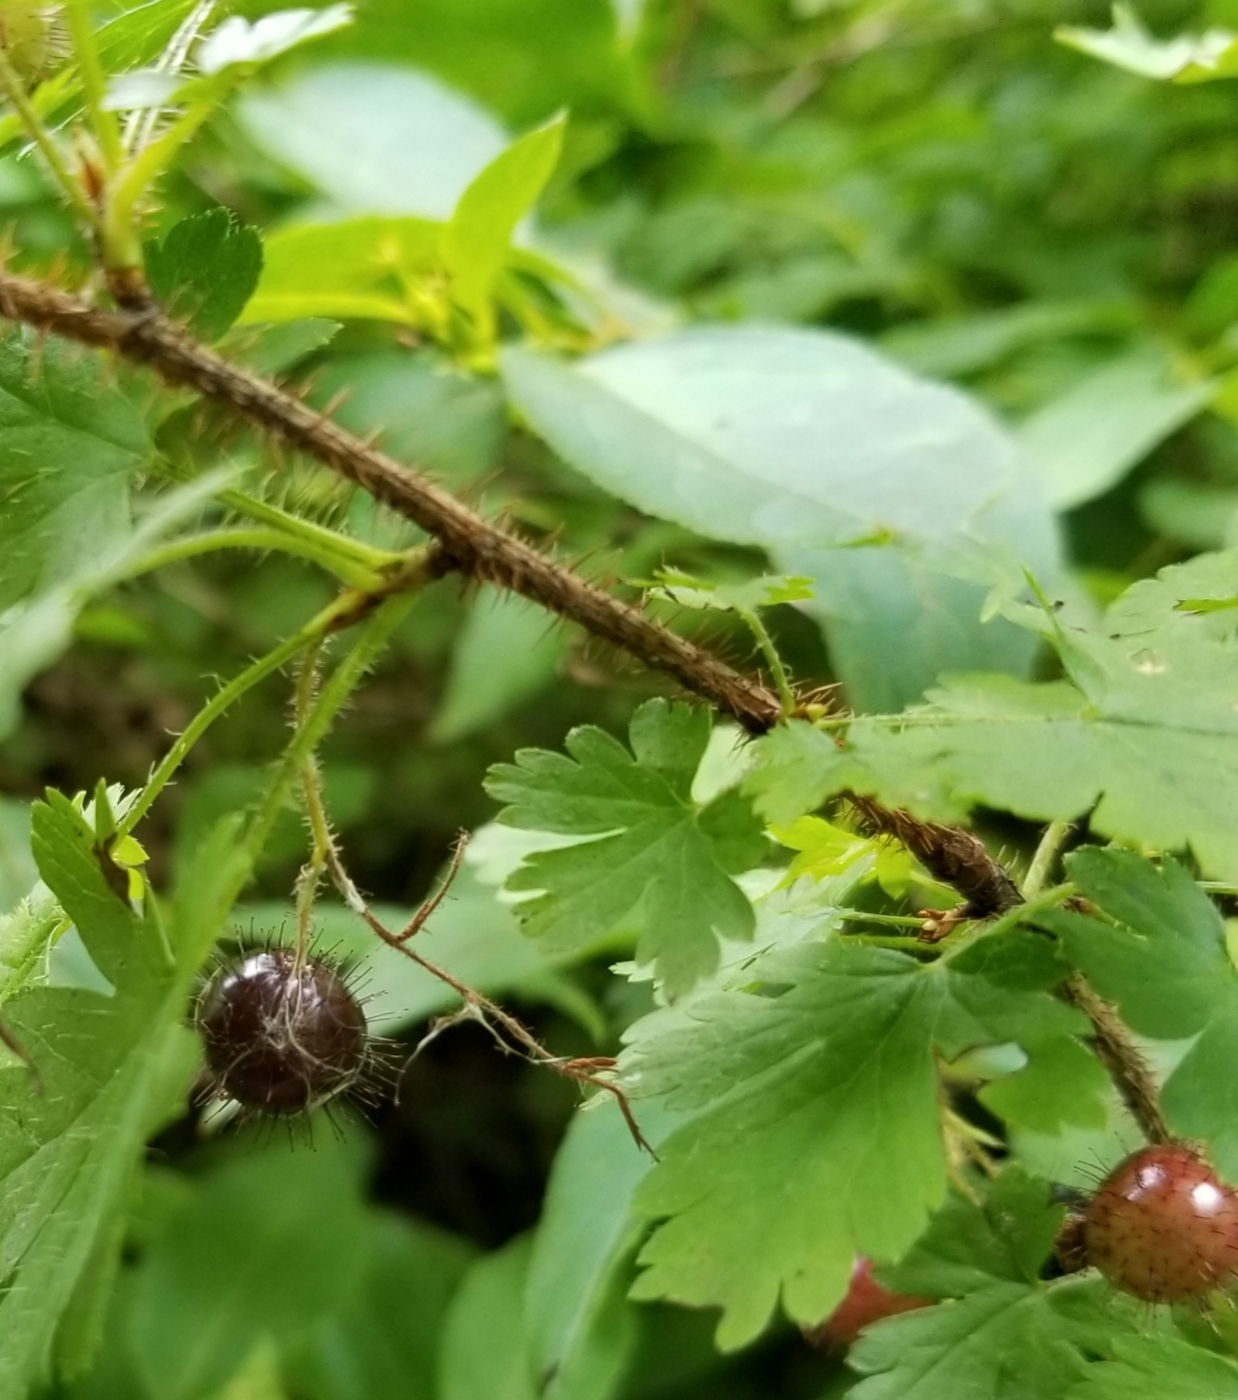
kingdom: Plantae
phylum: Tracheophyta
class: Magnoliopsida
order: Saxifragales
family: Grossulariaceae
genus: Ribes
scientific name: Ribes lacustre
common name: Black gooseberry
